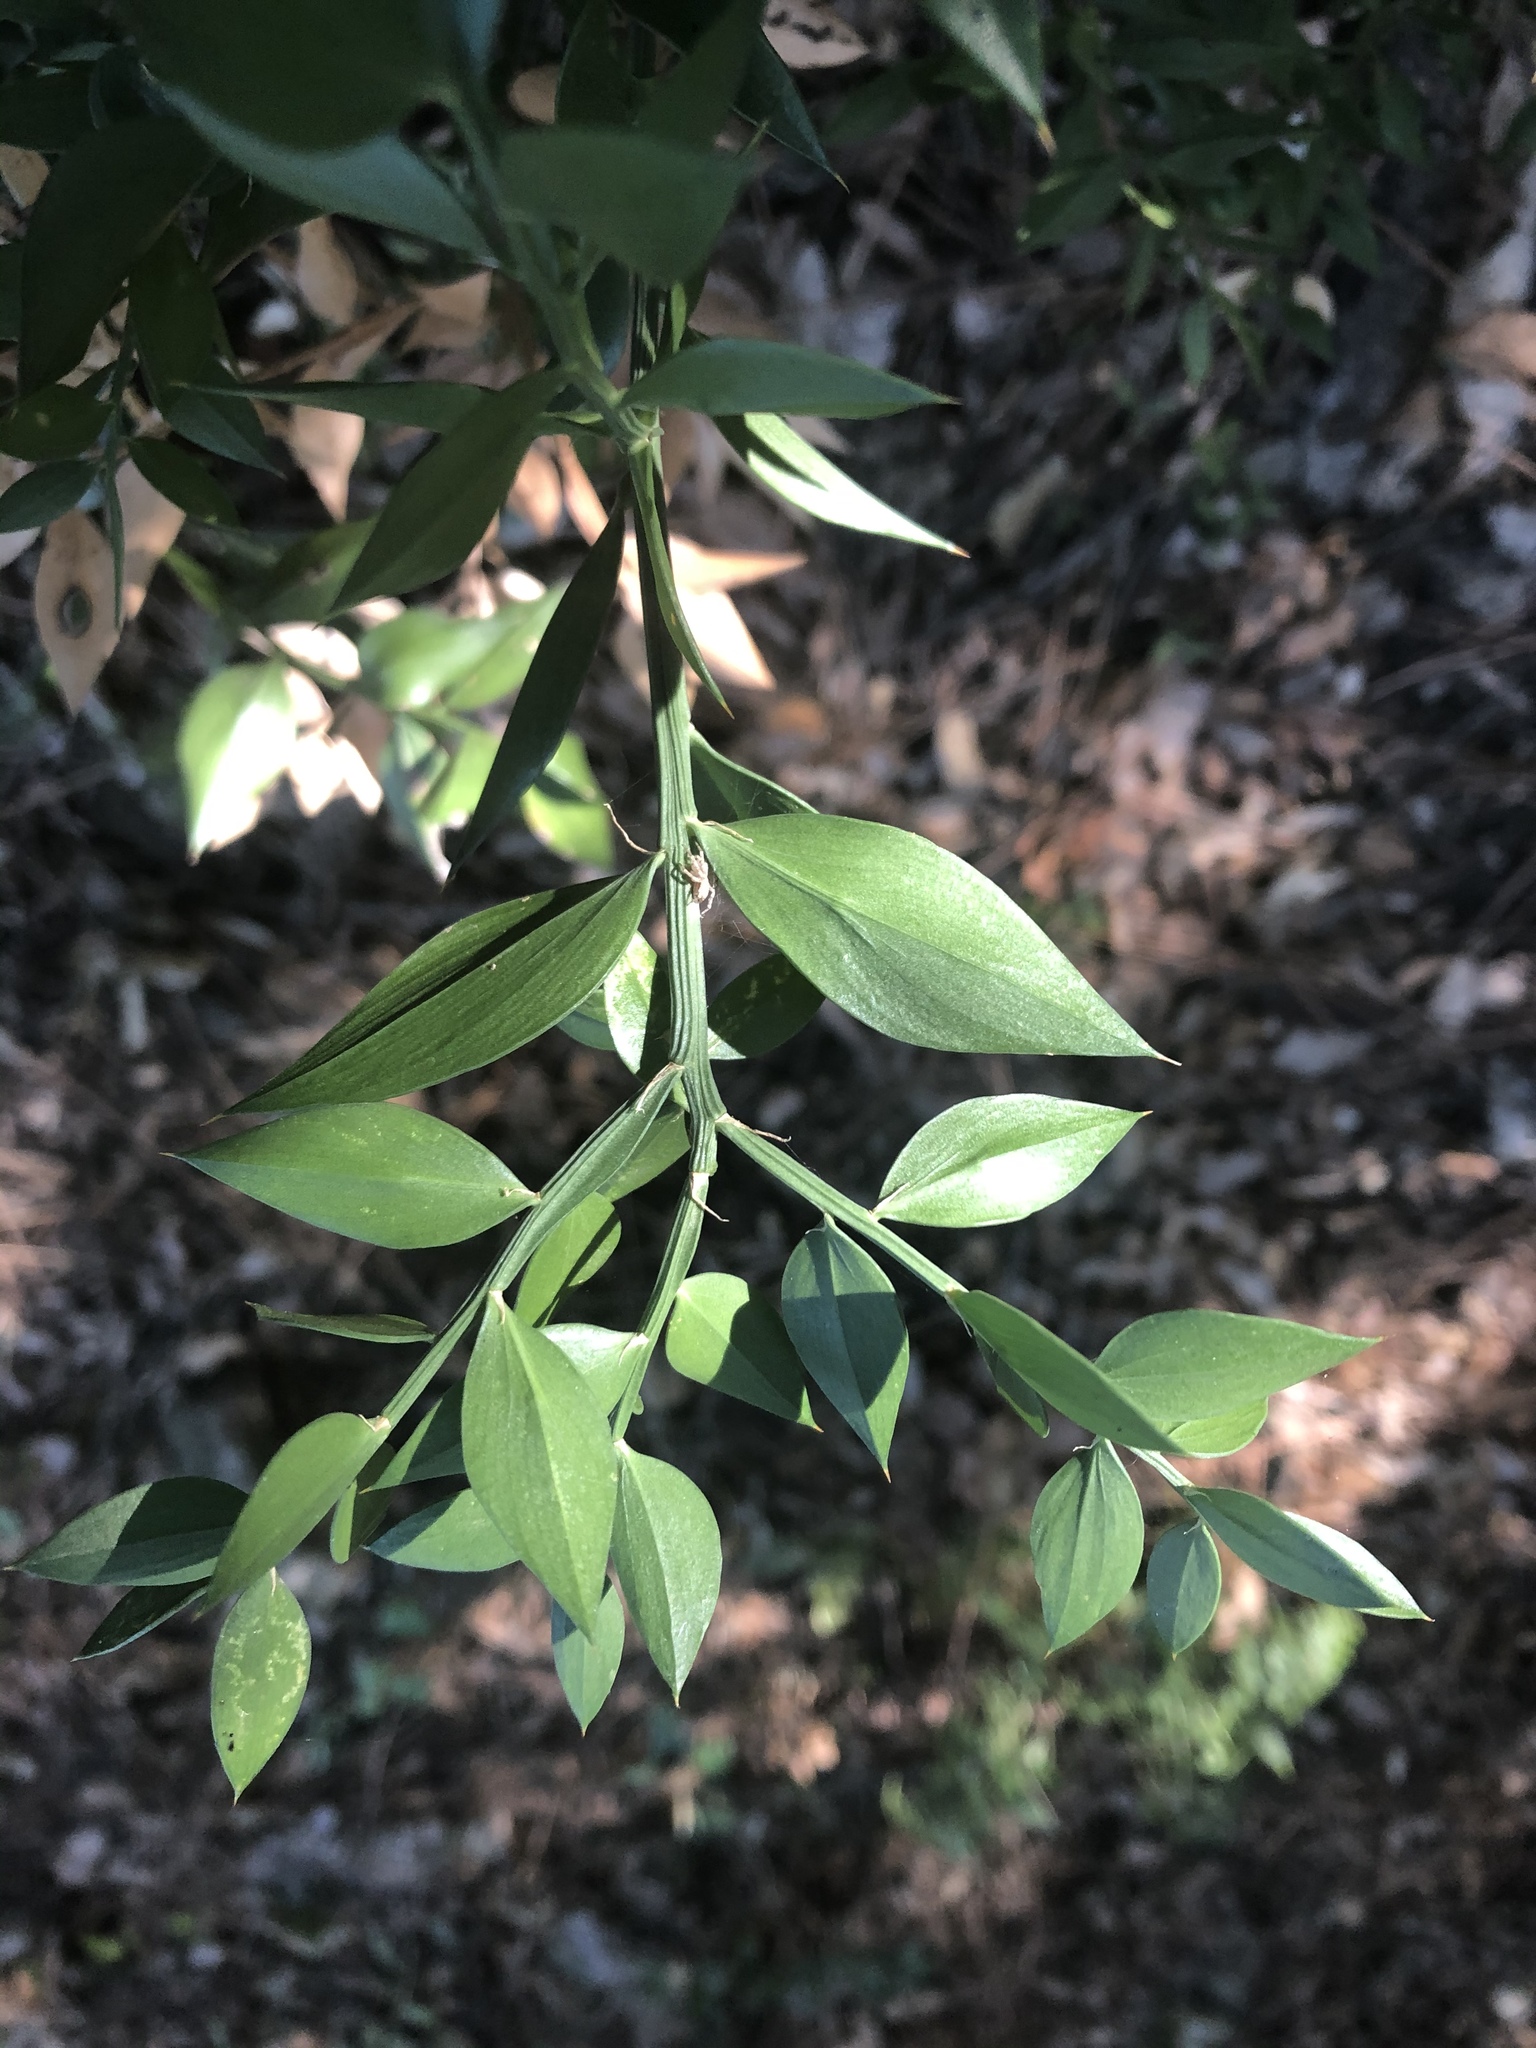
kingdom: Plantae
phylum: Tracheophyta
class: Liliopsida
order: Asparagales
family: Asparagaceae
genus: Ruscus
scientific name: Ruscus aculeatus
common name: Butcher's-broom
